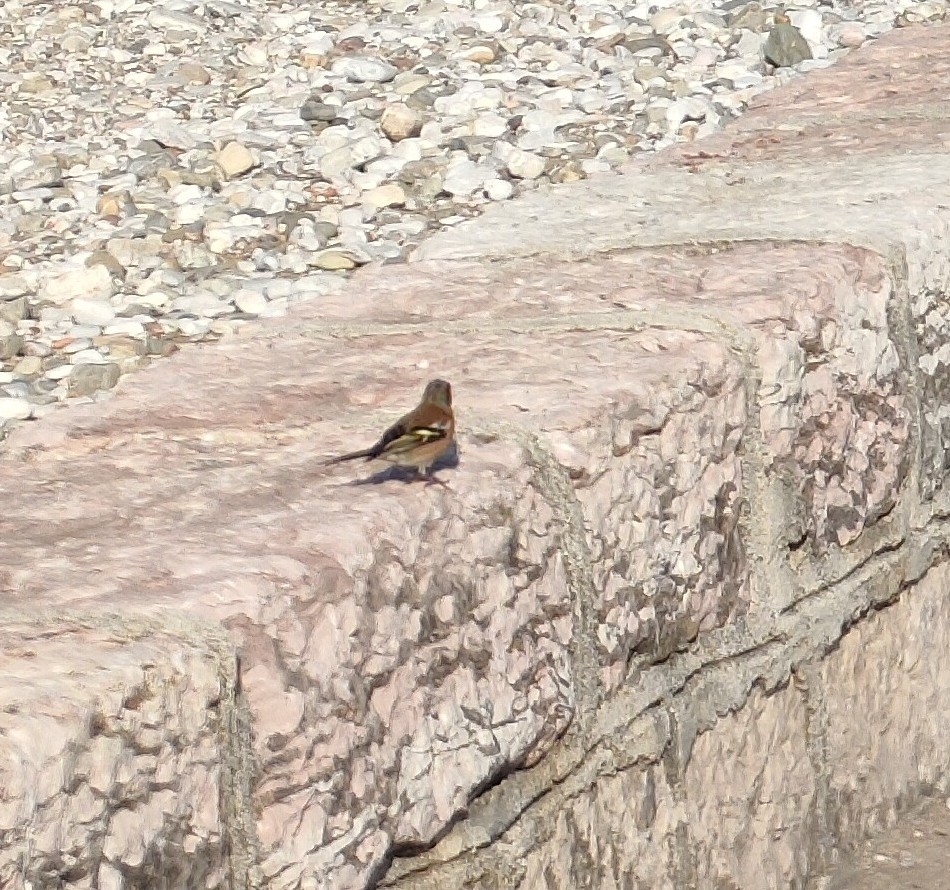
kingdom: Animalia
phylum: Chordata
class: Aves
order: Passeriformes
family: Fringillidae
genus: Fringilla
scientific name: Fringilla coelebs
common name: Common chaffinch
